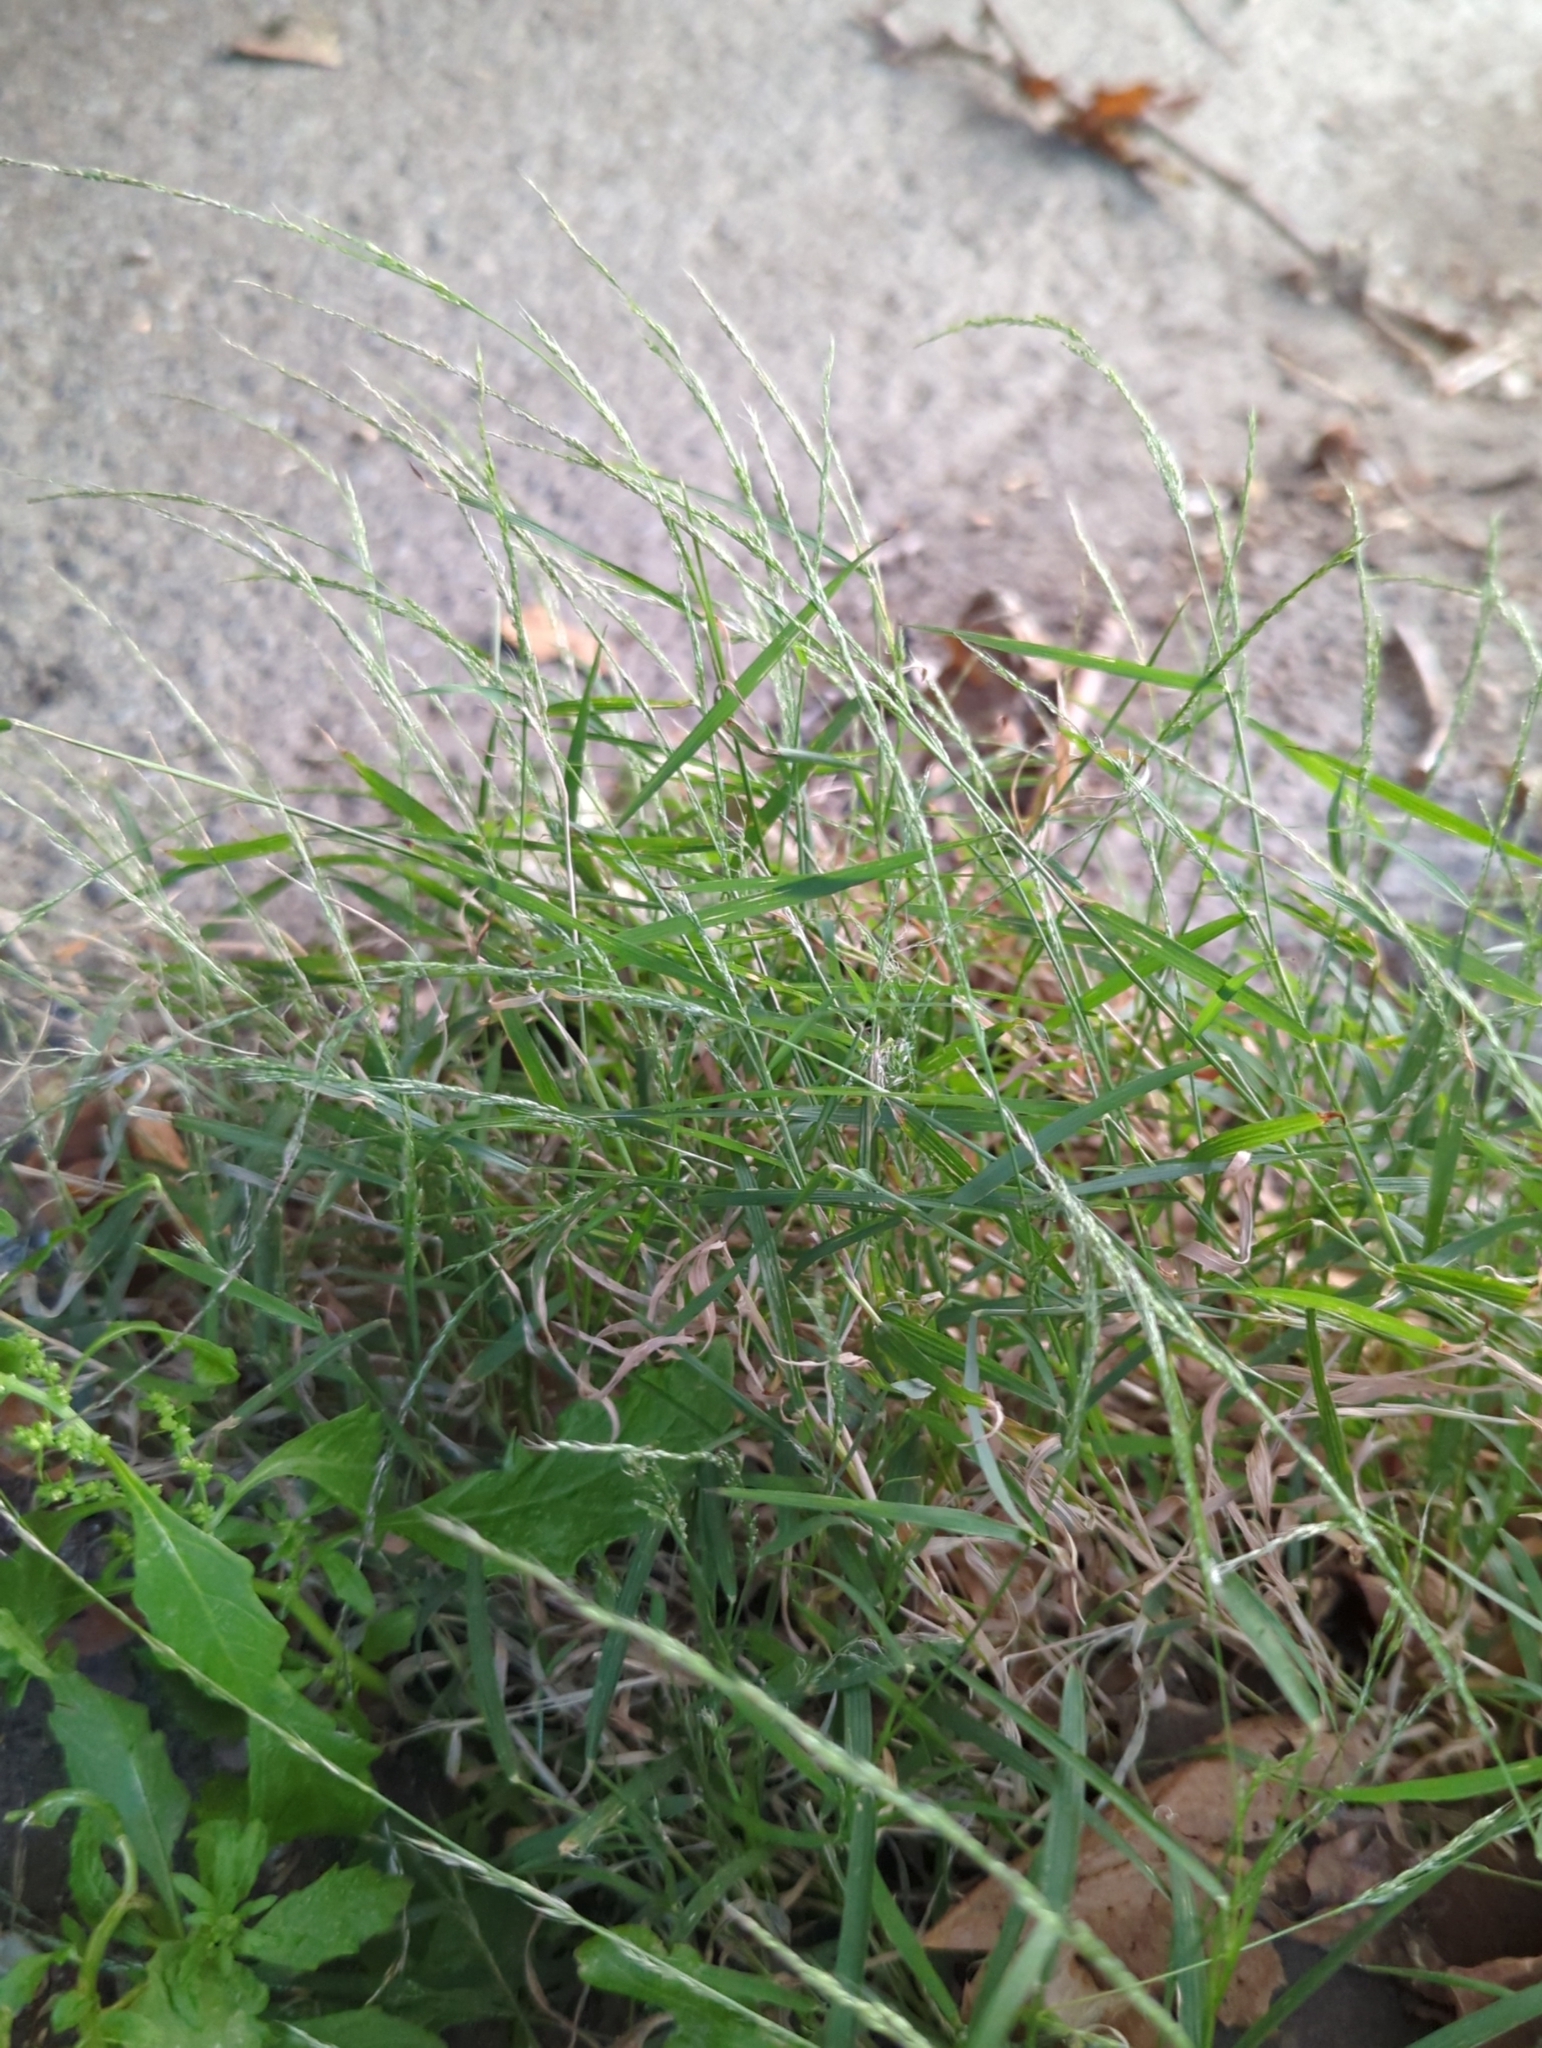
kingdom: Plantae
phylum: Tracheophyta
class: Liliopsida
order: Poales
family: Poaceae
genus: Muhlenbergia
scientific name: Muhlenbergia schreberi
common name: Nimblewill
